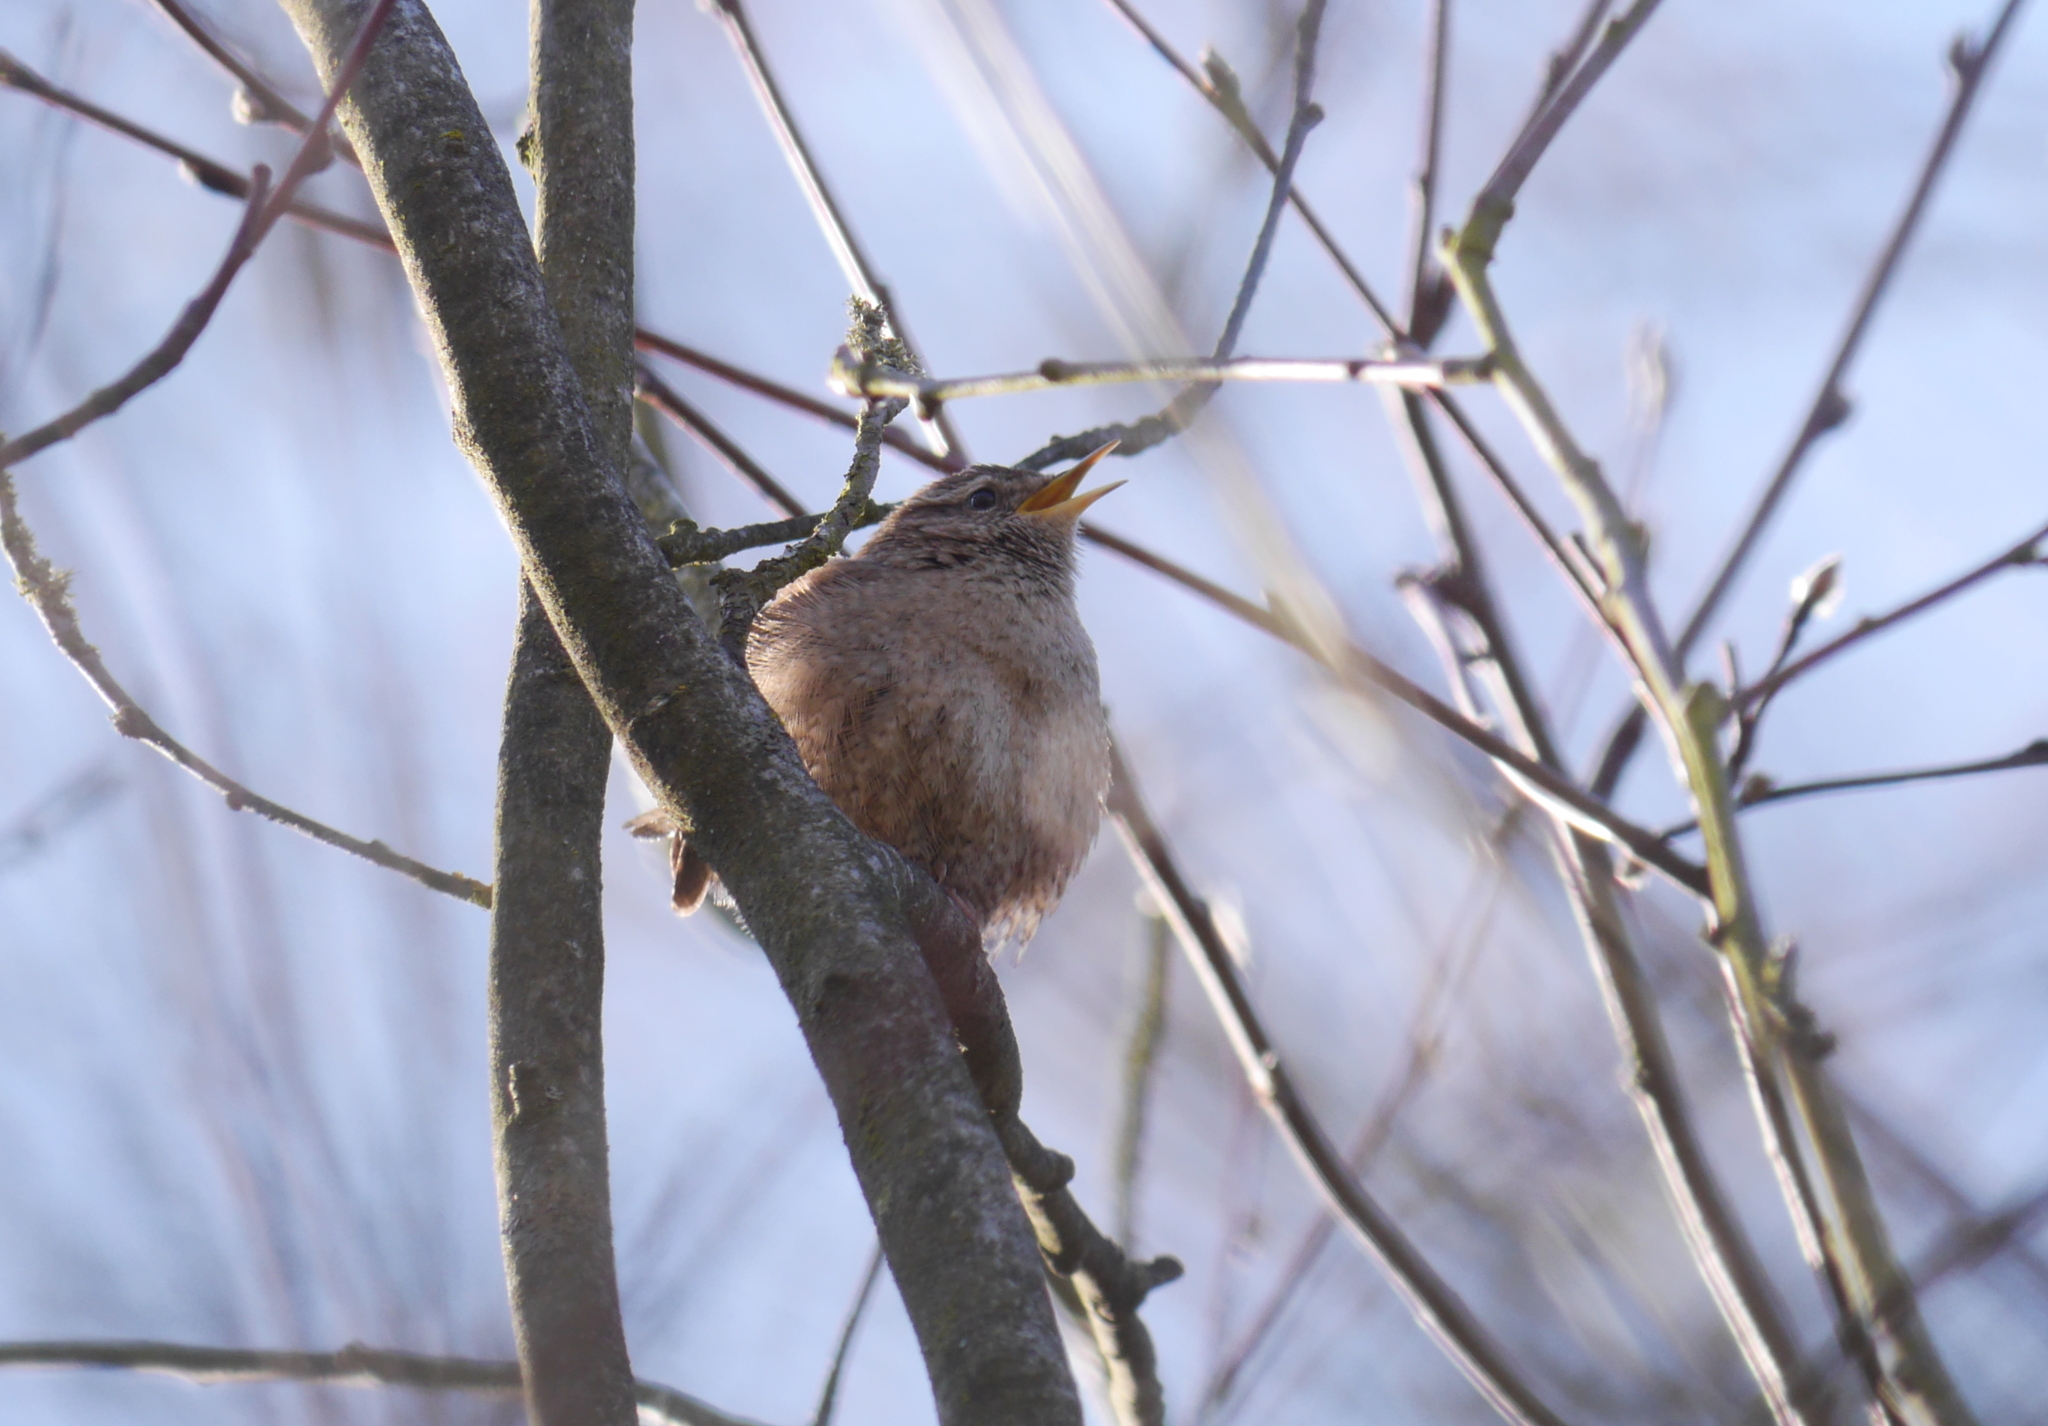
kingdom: Animalia
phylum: Chordata
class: Aves
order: Passeriformes
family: Troglodytidae
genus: Troglodytes
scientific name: Troglodytes troglodytes
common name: Eurasian wren
